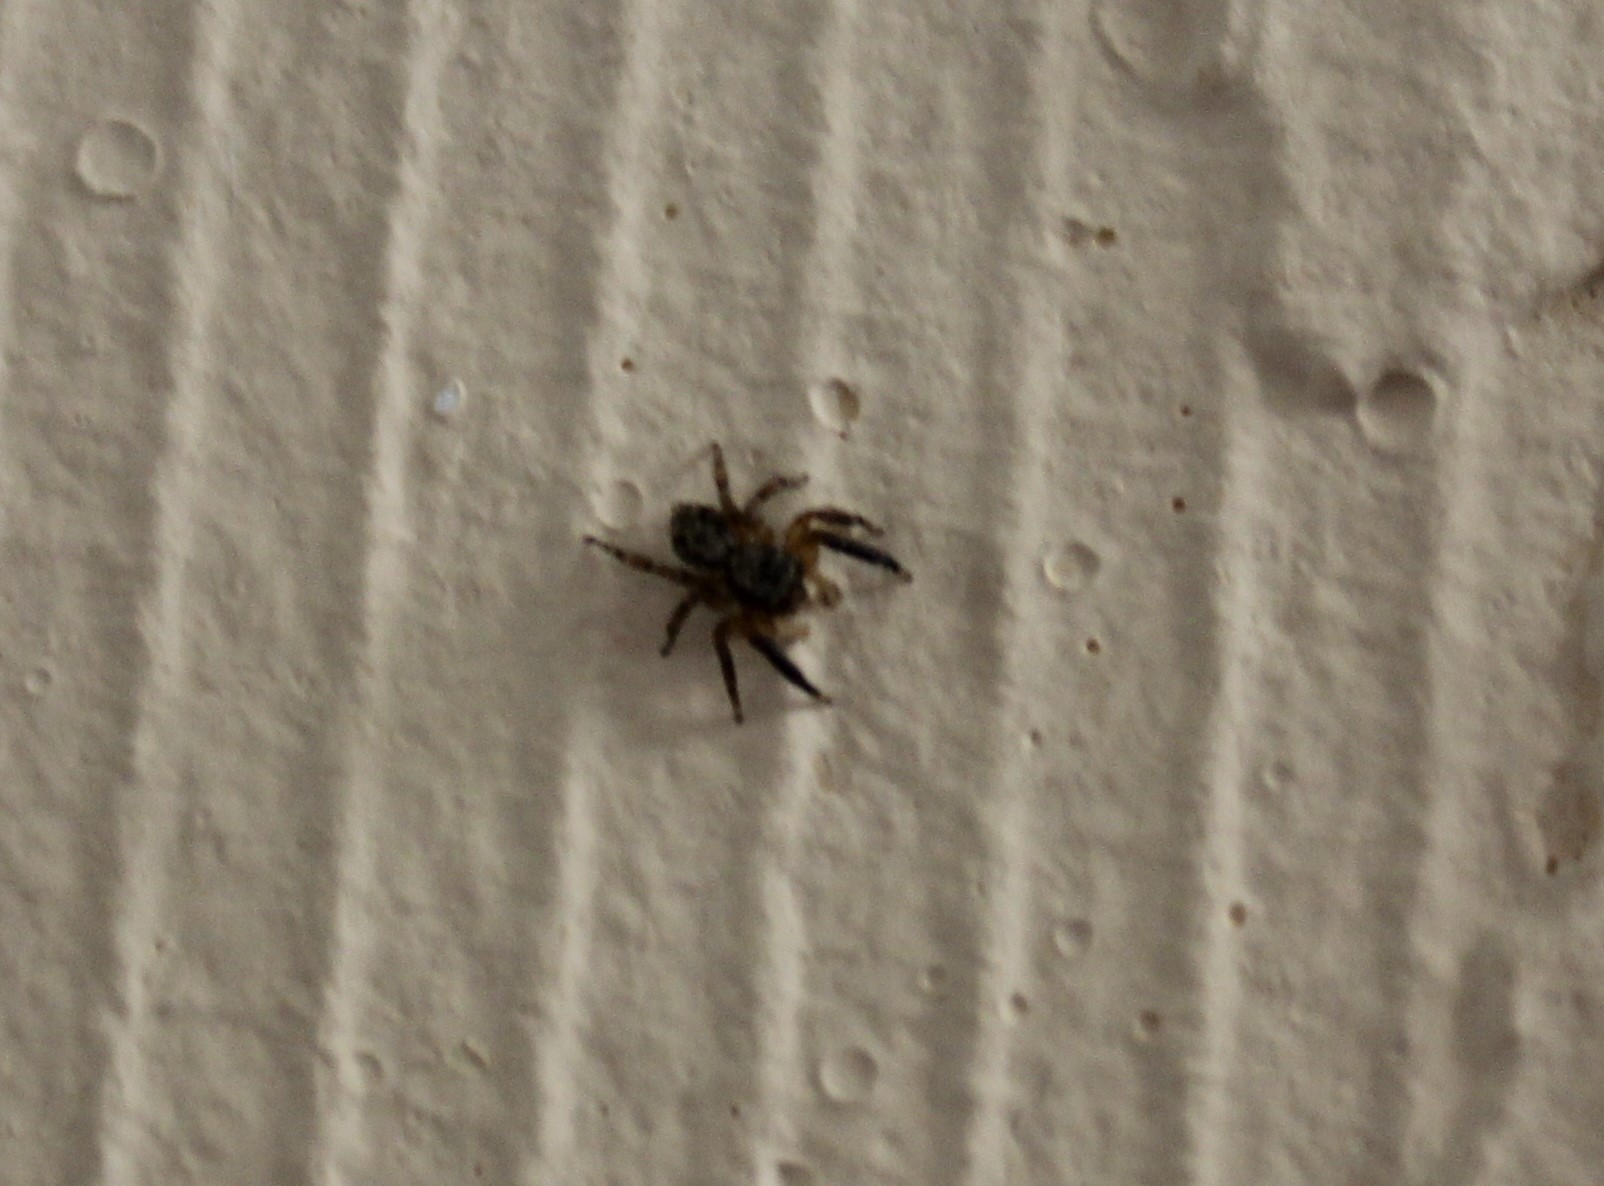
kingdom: Animalia
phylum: Arthropoda
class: Arachnida
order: Araneae
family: Salticidae
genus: Pseudeuophrys
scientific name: Pseudeuophrys
